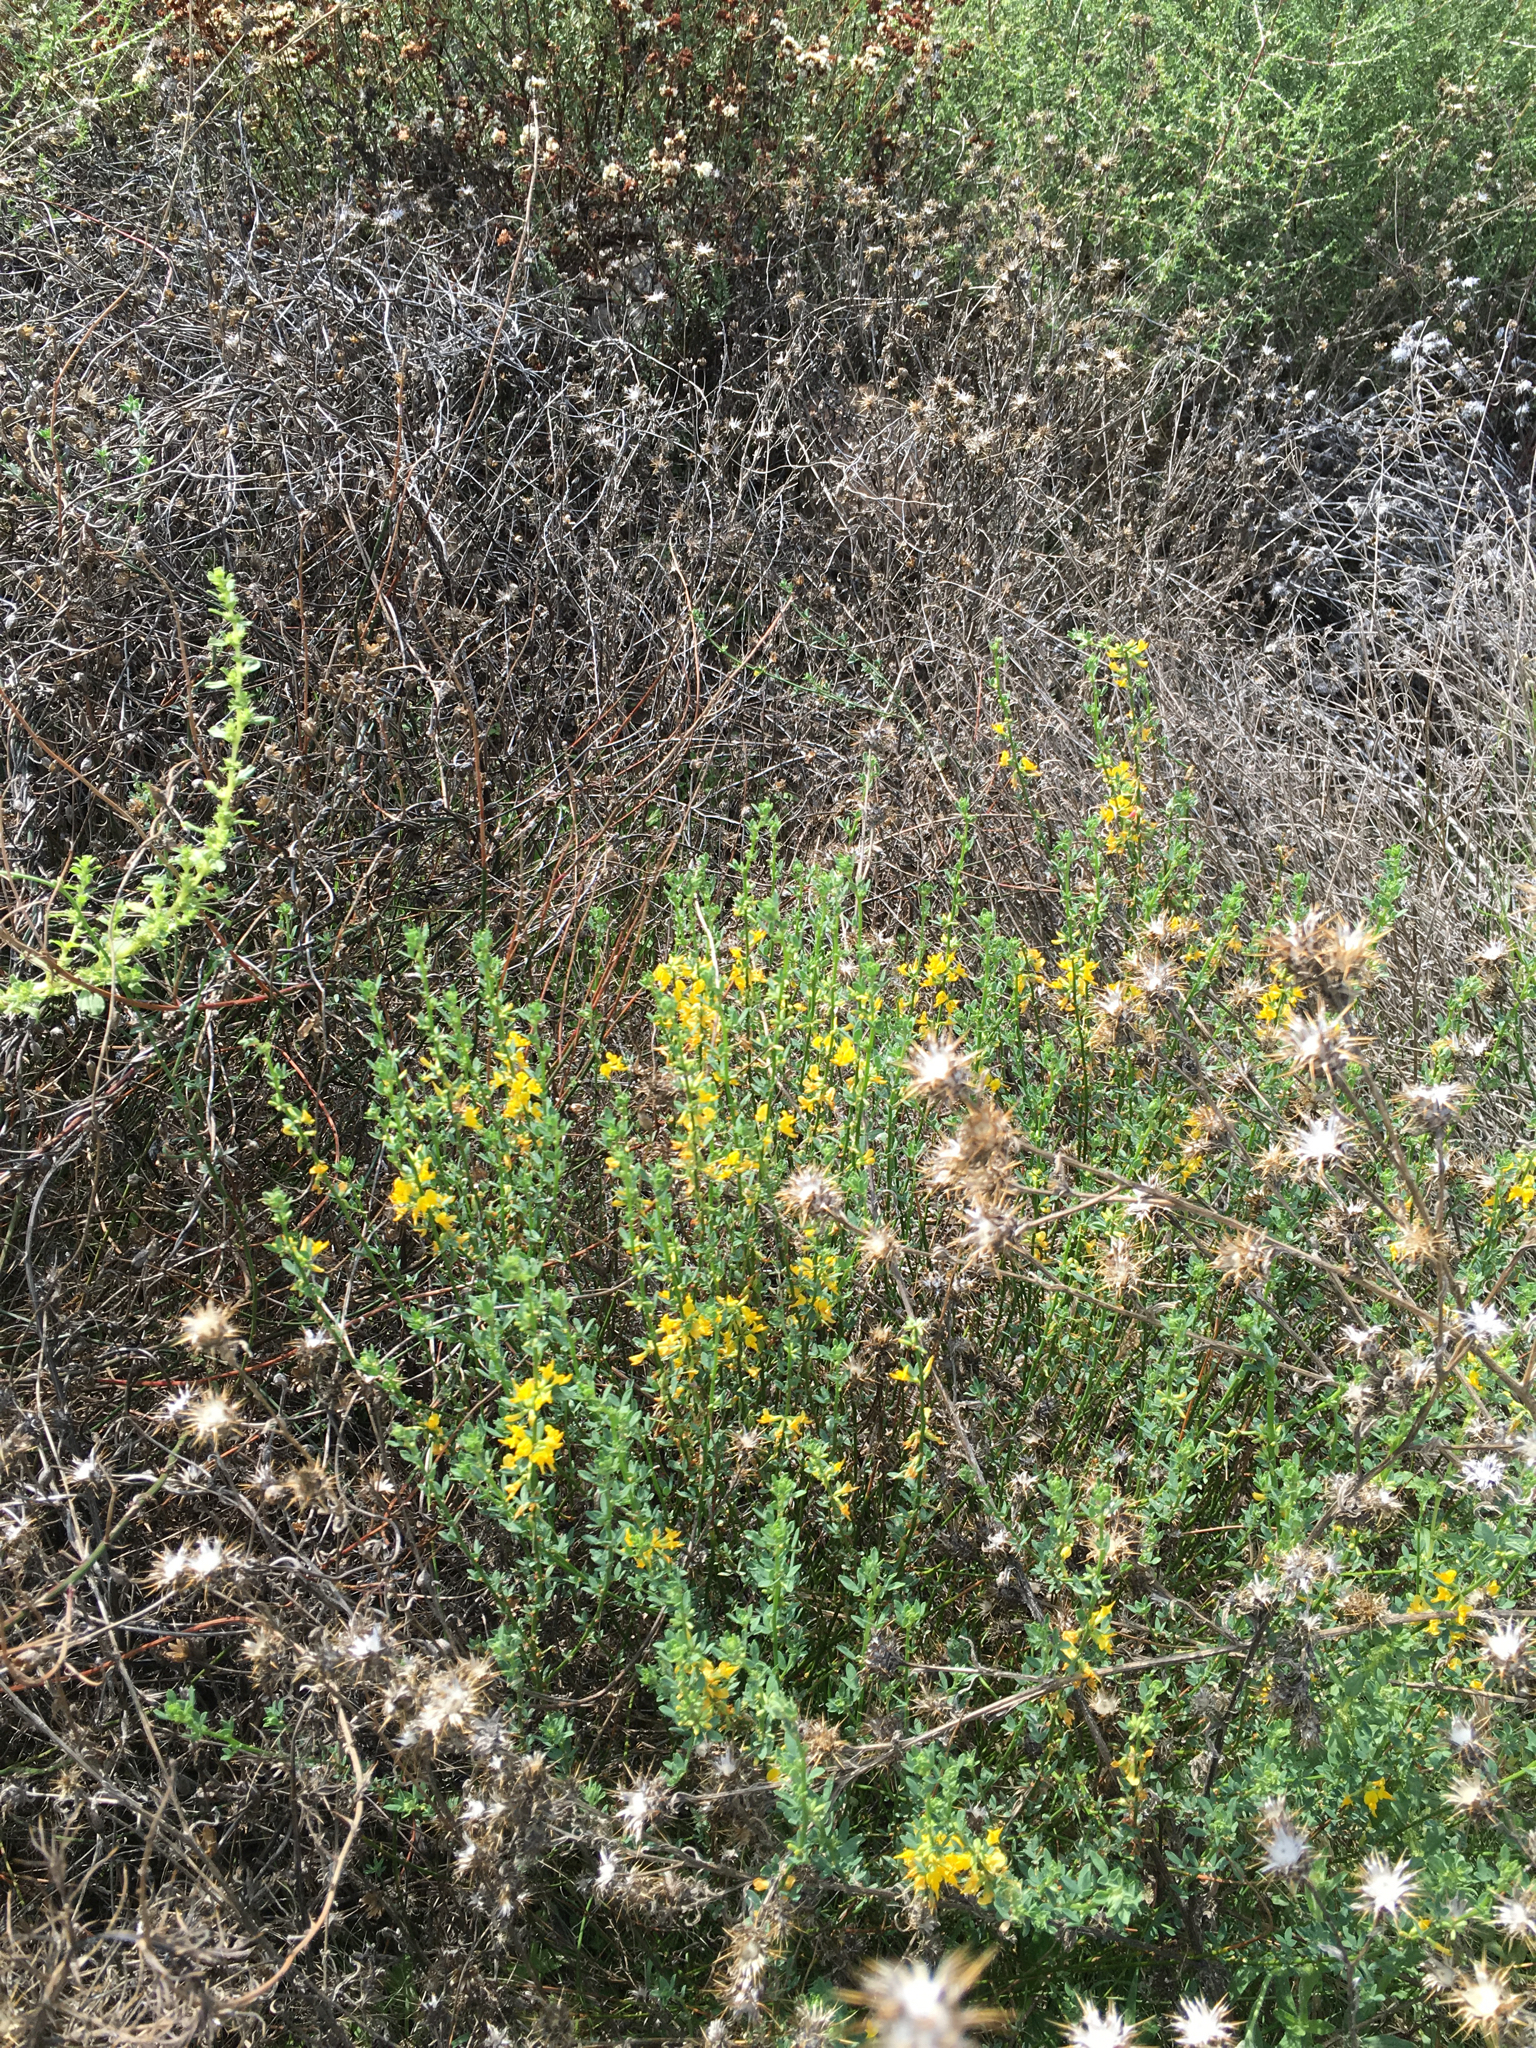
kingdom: Plantae
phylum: Tracheophyta
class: Magnoliopsida
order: Fabales
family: Fabaceae
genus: Acmispon
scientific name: Acmispon glaber
